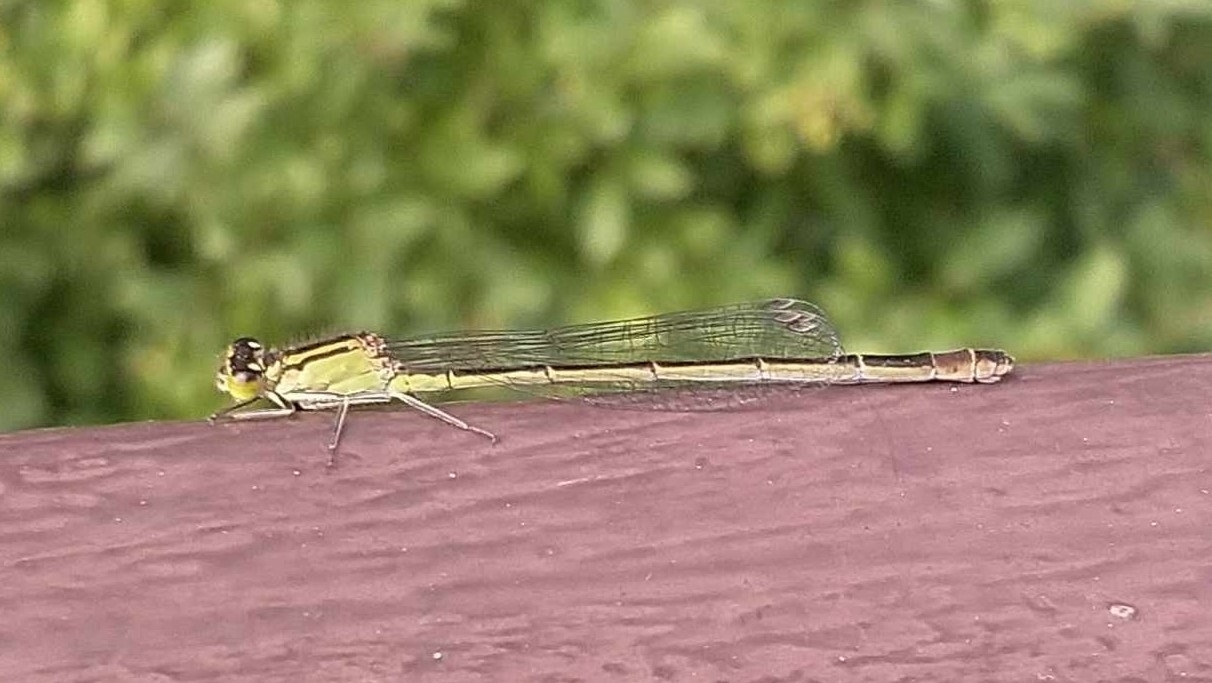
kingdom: Animalia
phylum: Arthropoda
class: Insecta
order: Odonata
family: Coenagrionidae
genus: Ischnura
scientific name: Ischnura elegans
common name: Blue-tailed damselfly
